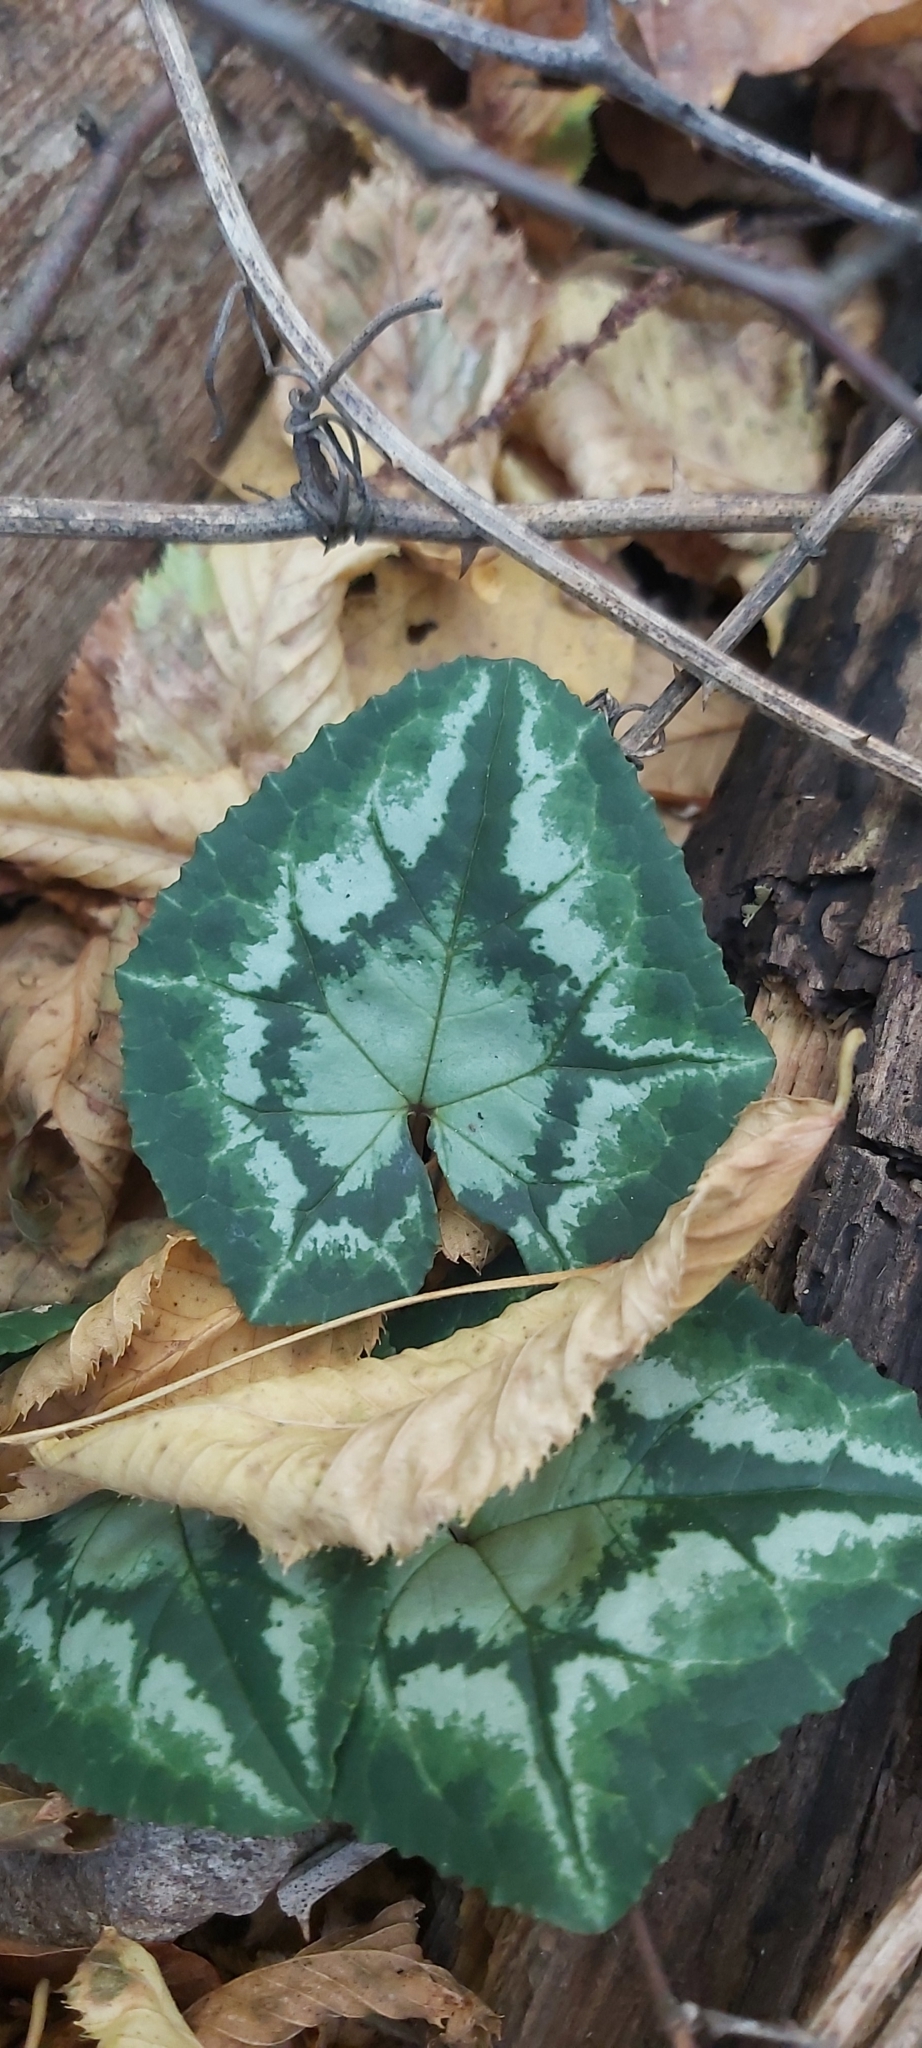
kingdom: Plantae
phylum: Tracheophyta
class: Magnoliopsida
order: Ericales
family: Primulaceae
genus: Cyclamen
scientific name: Cyclamen hederifolium
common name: Sowbread
